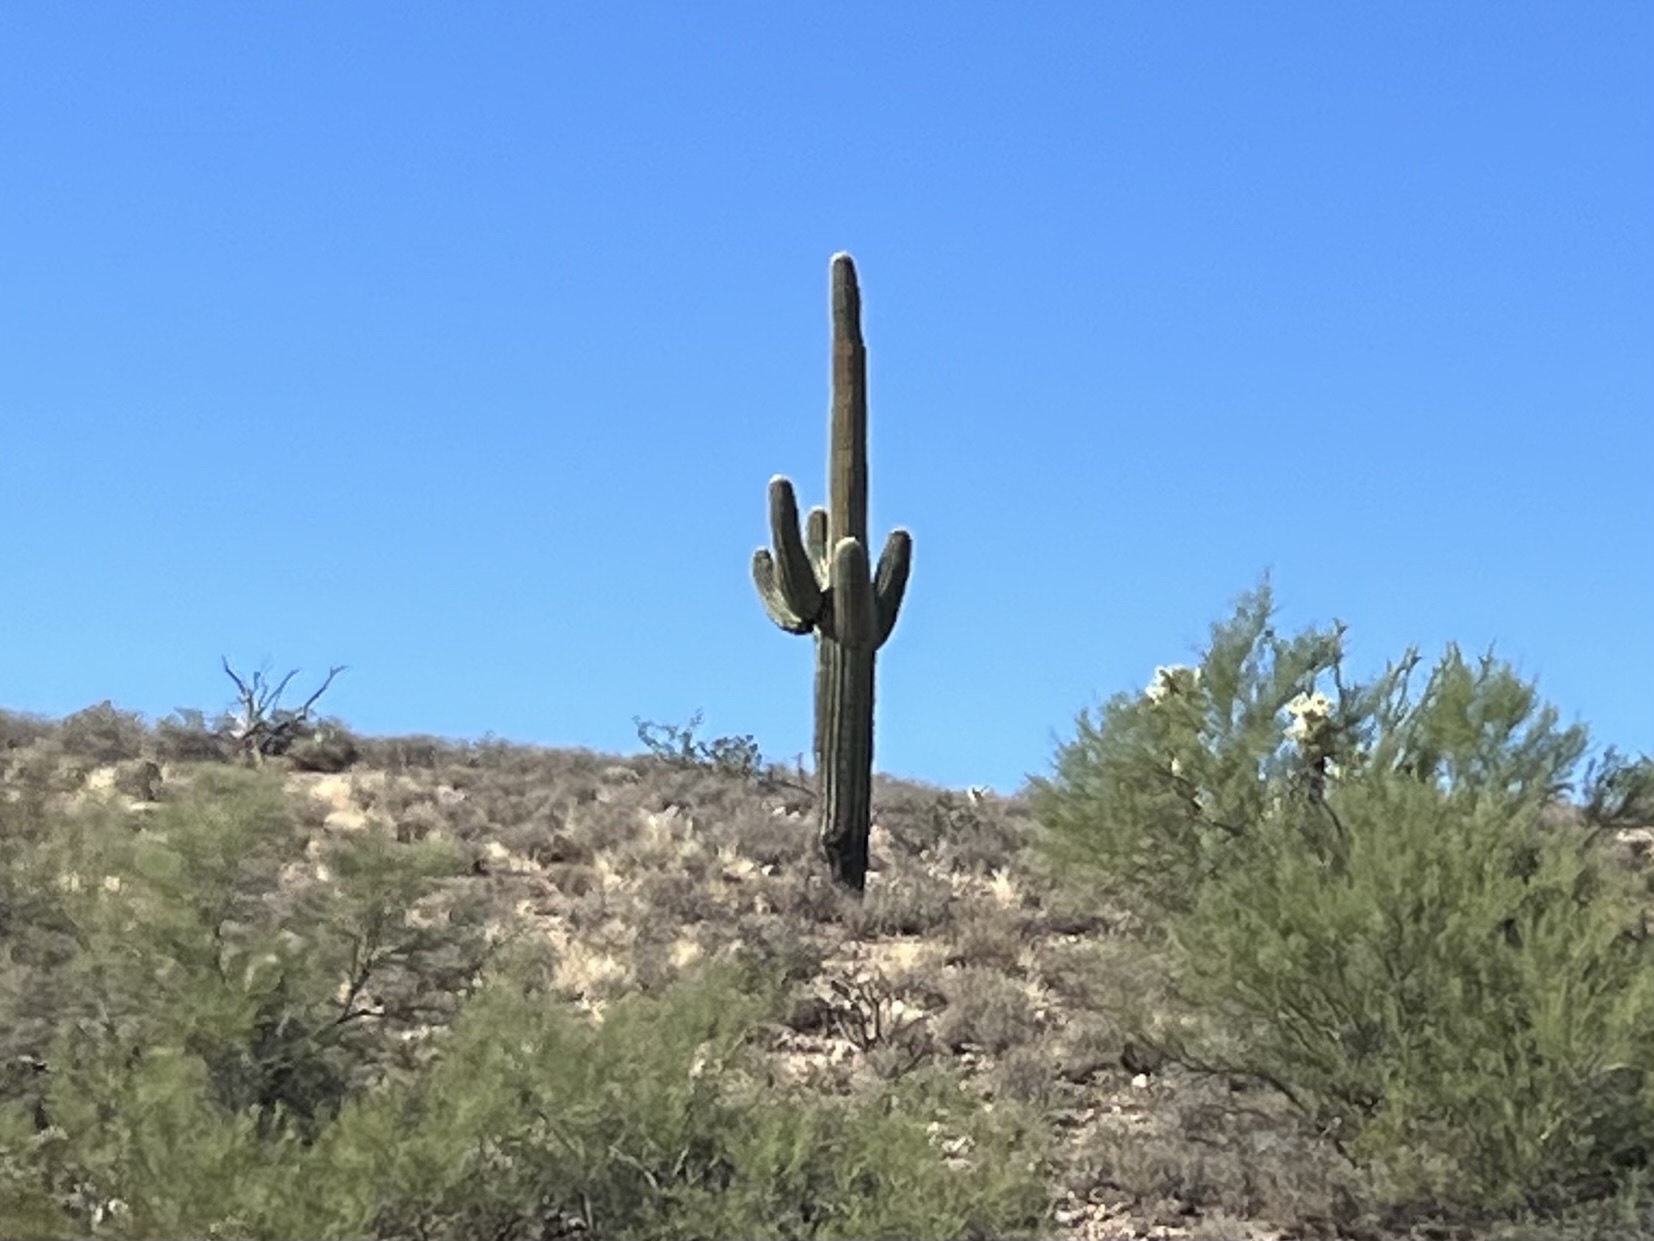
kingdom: Plantae
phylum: Tracheophyta
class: Magnoliopsida
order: Caryophyllales
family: Cactaceae
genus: Carnegiea
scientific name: Carnegiea gigantea
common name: Saguaro
